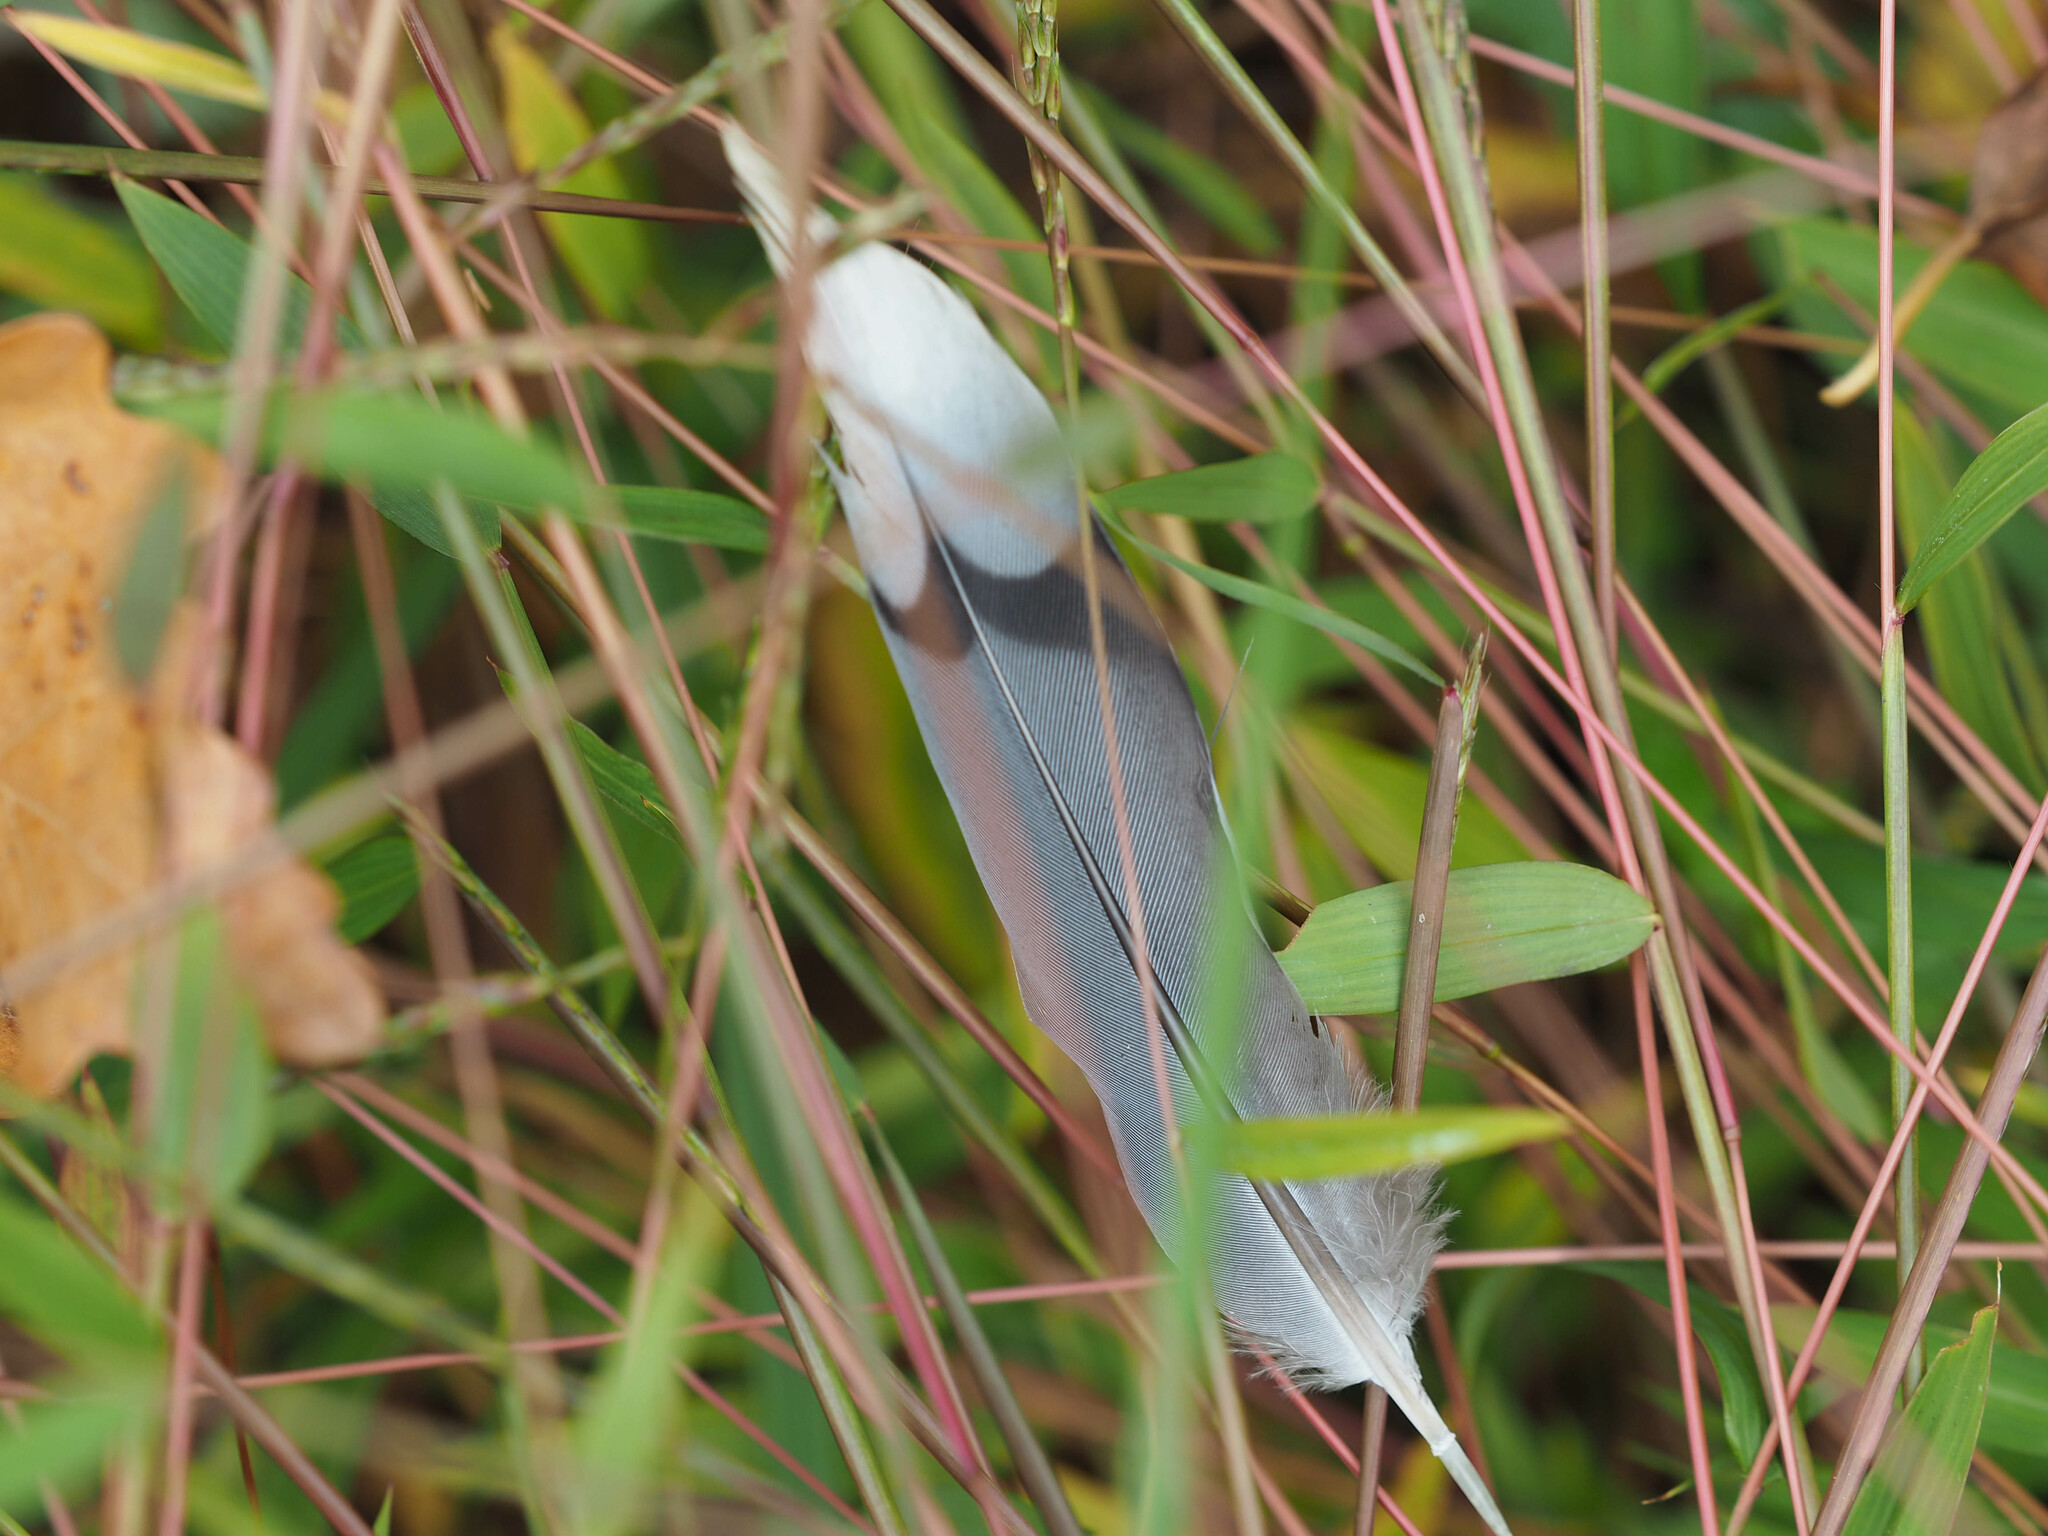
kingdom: Animalia
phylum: Chordata
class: Aves
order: Columbiformes
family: Columbidae
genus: Zenaida
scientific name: Zenaida macroura
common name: Mourning dove
